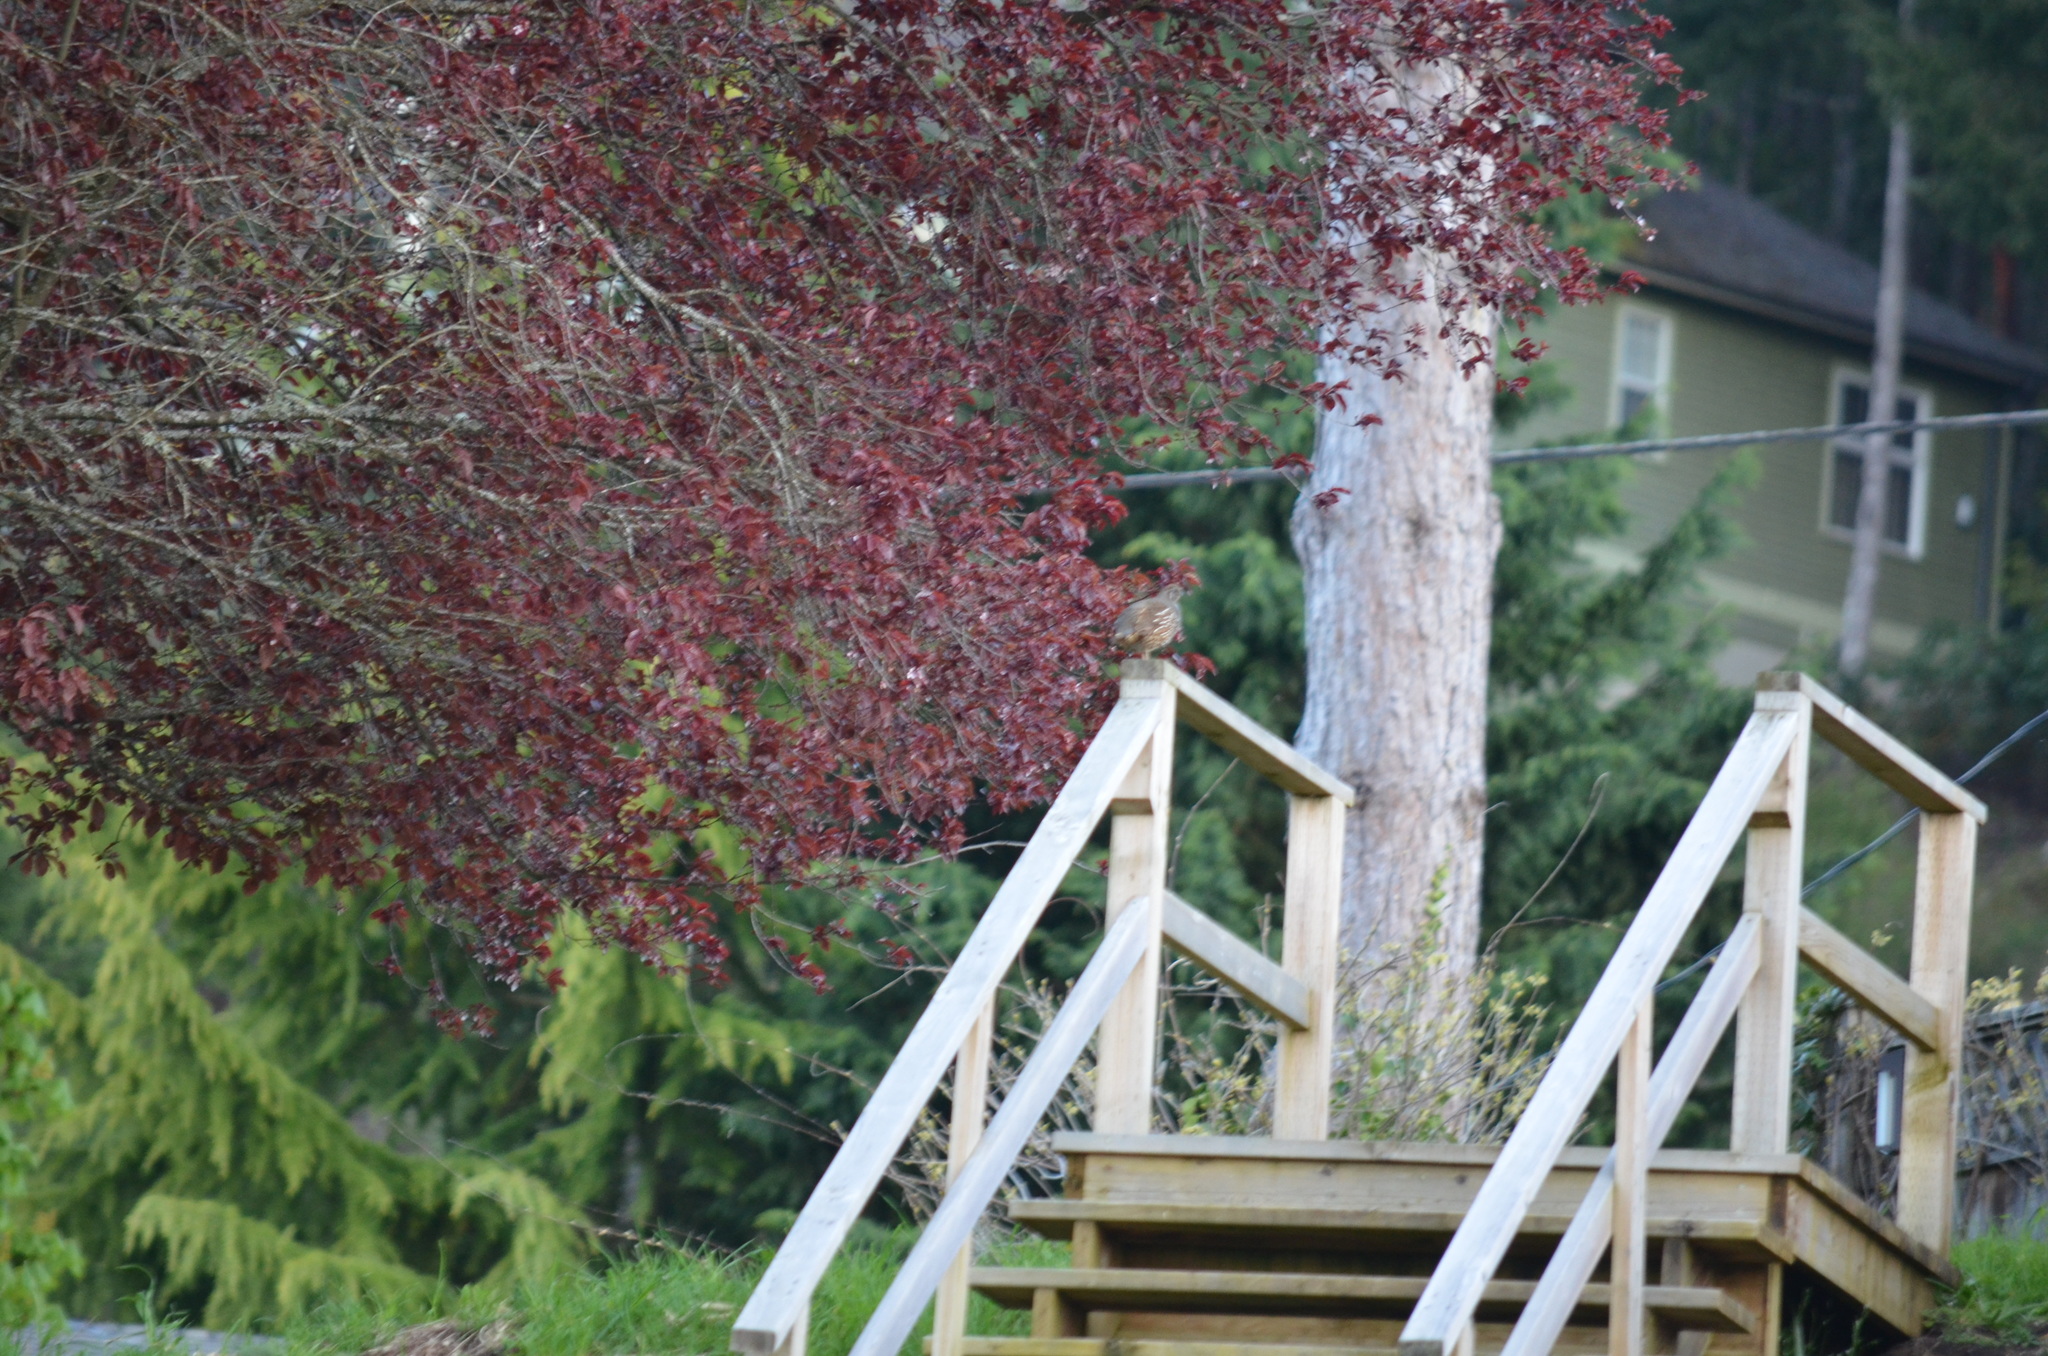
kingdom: Animalia
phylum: Chordata
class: Aves
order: Galliformes
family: Odontophoridae
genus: Callipepla
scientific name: Callipepla californica
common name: California quail
